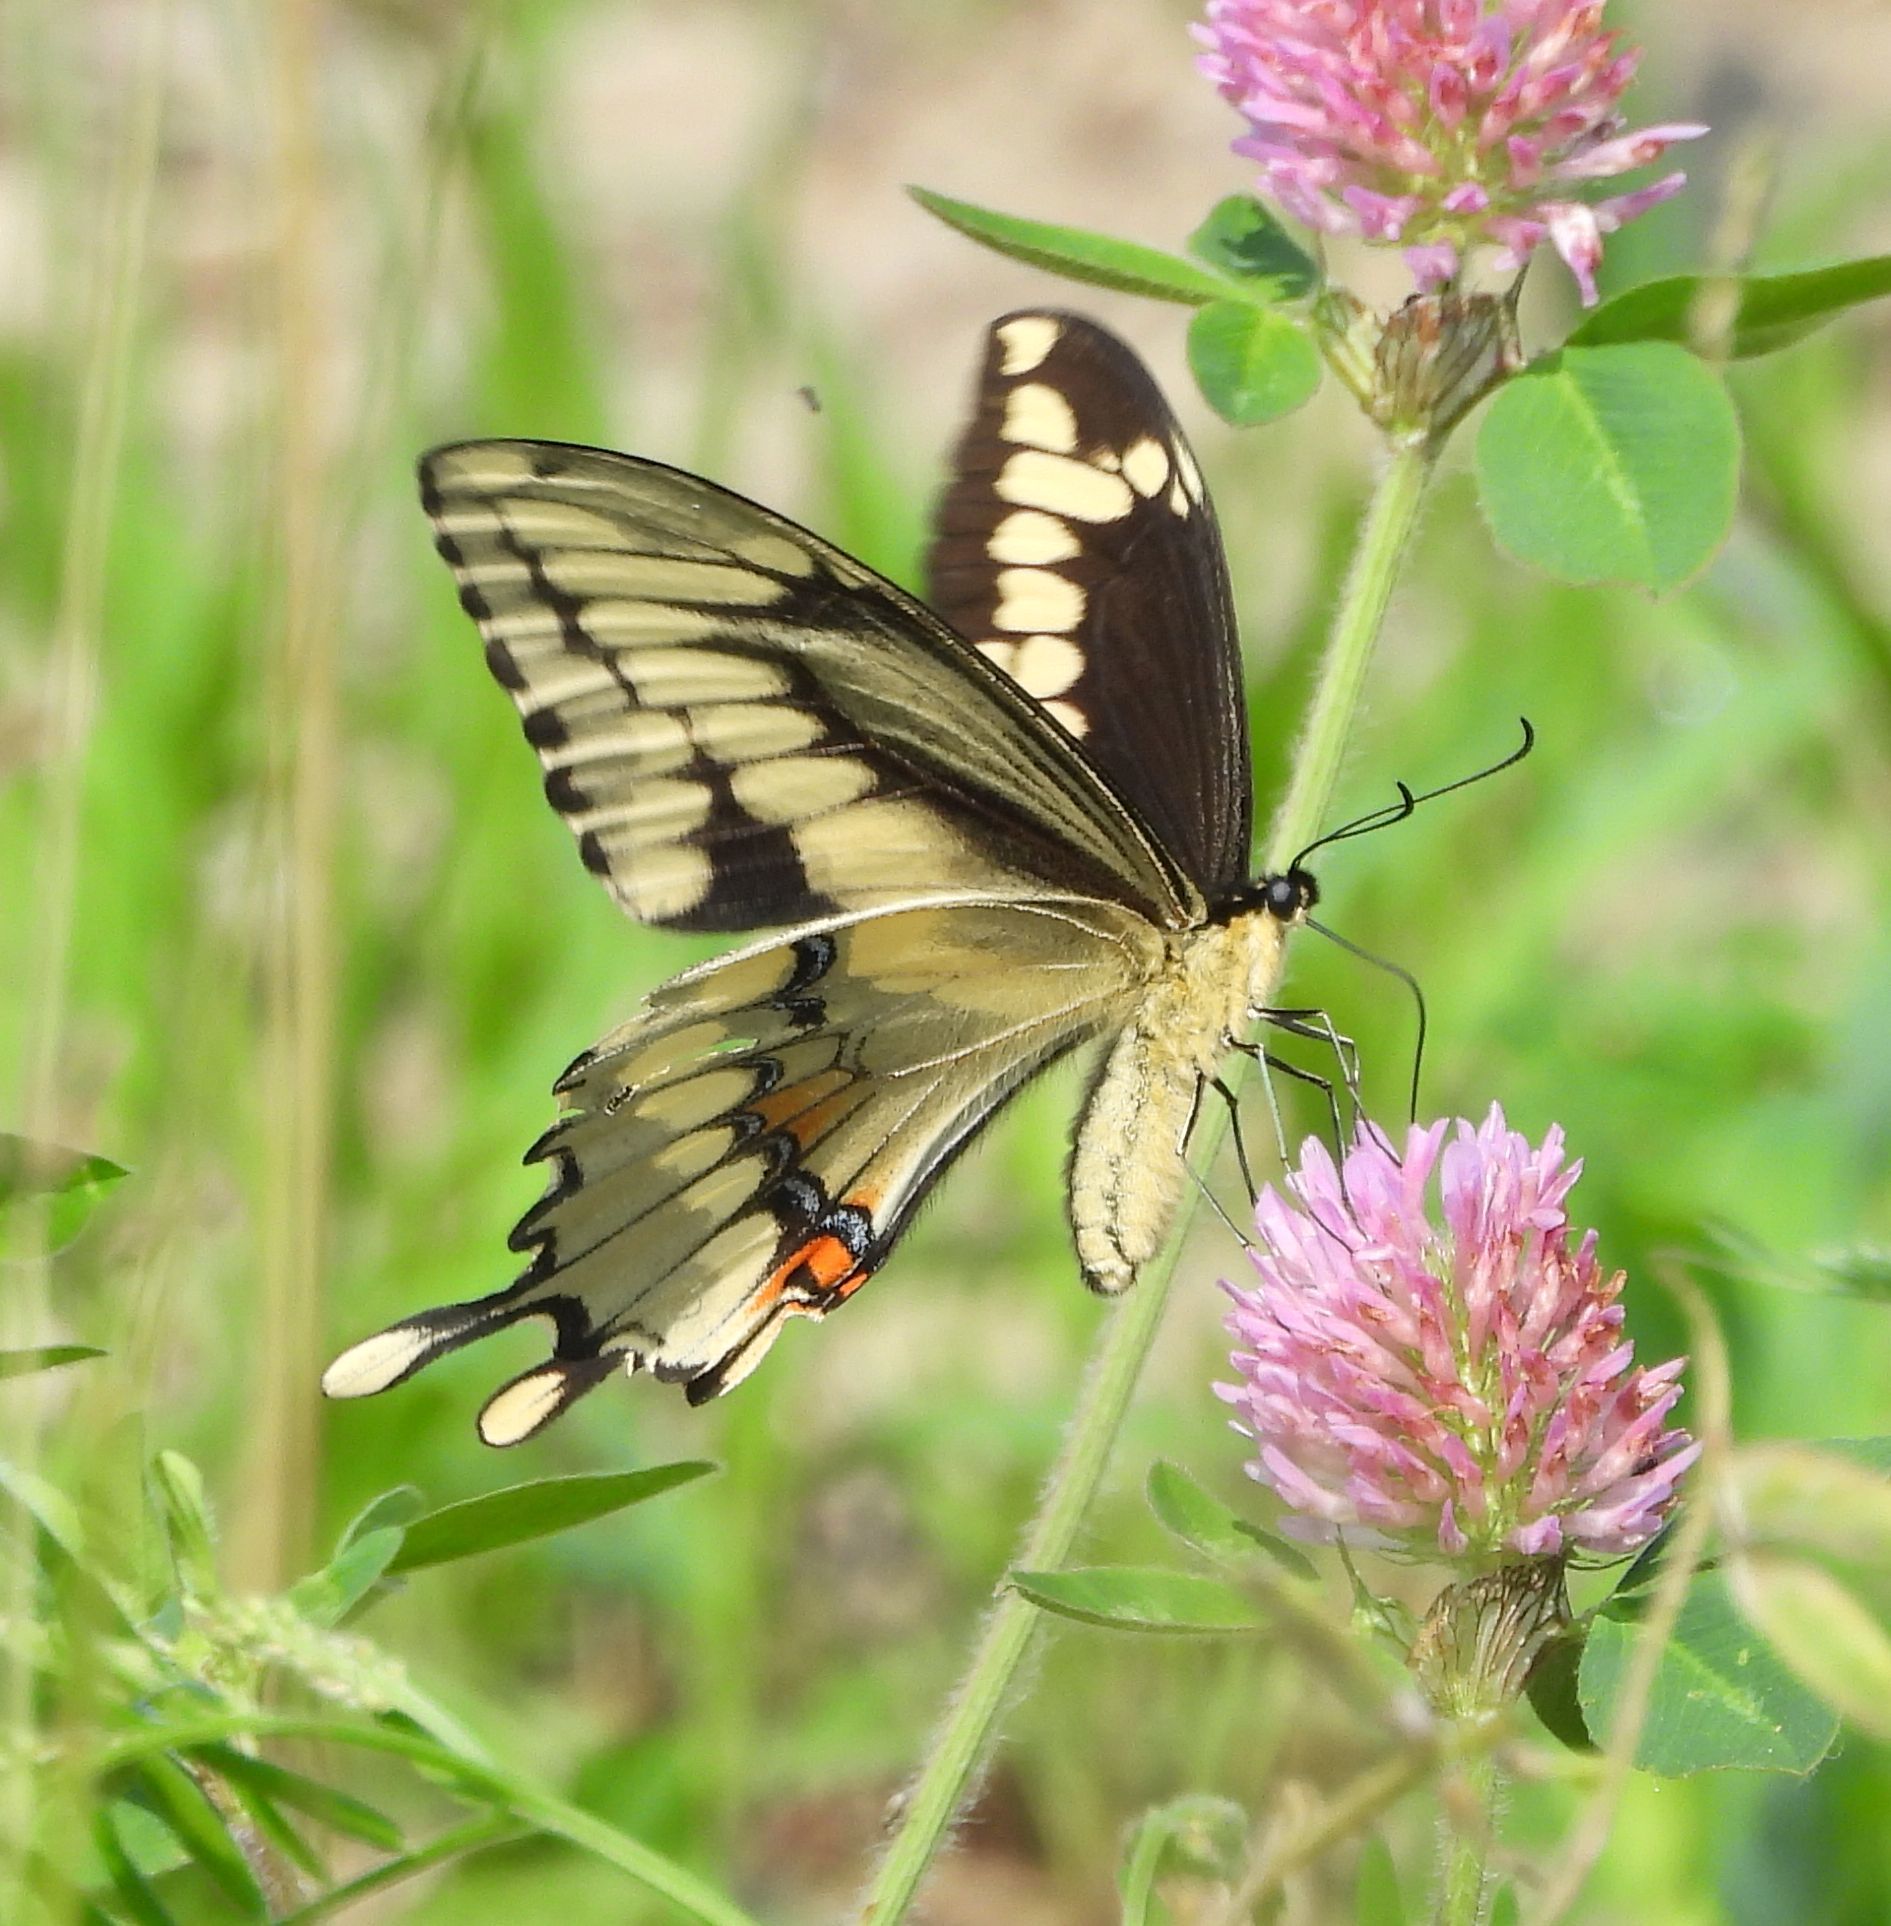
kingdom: Animalia
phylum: Arthropoda
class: Insecta
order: Lepidoptera
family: Papilionidae
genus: Papilio
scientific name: Papilio cresphontes
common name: Giant swallowtail
